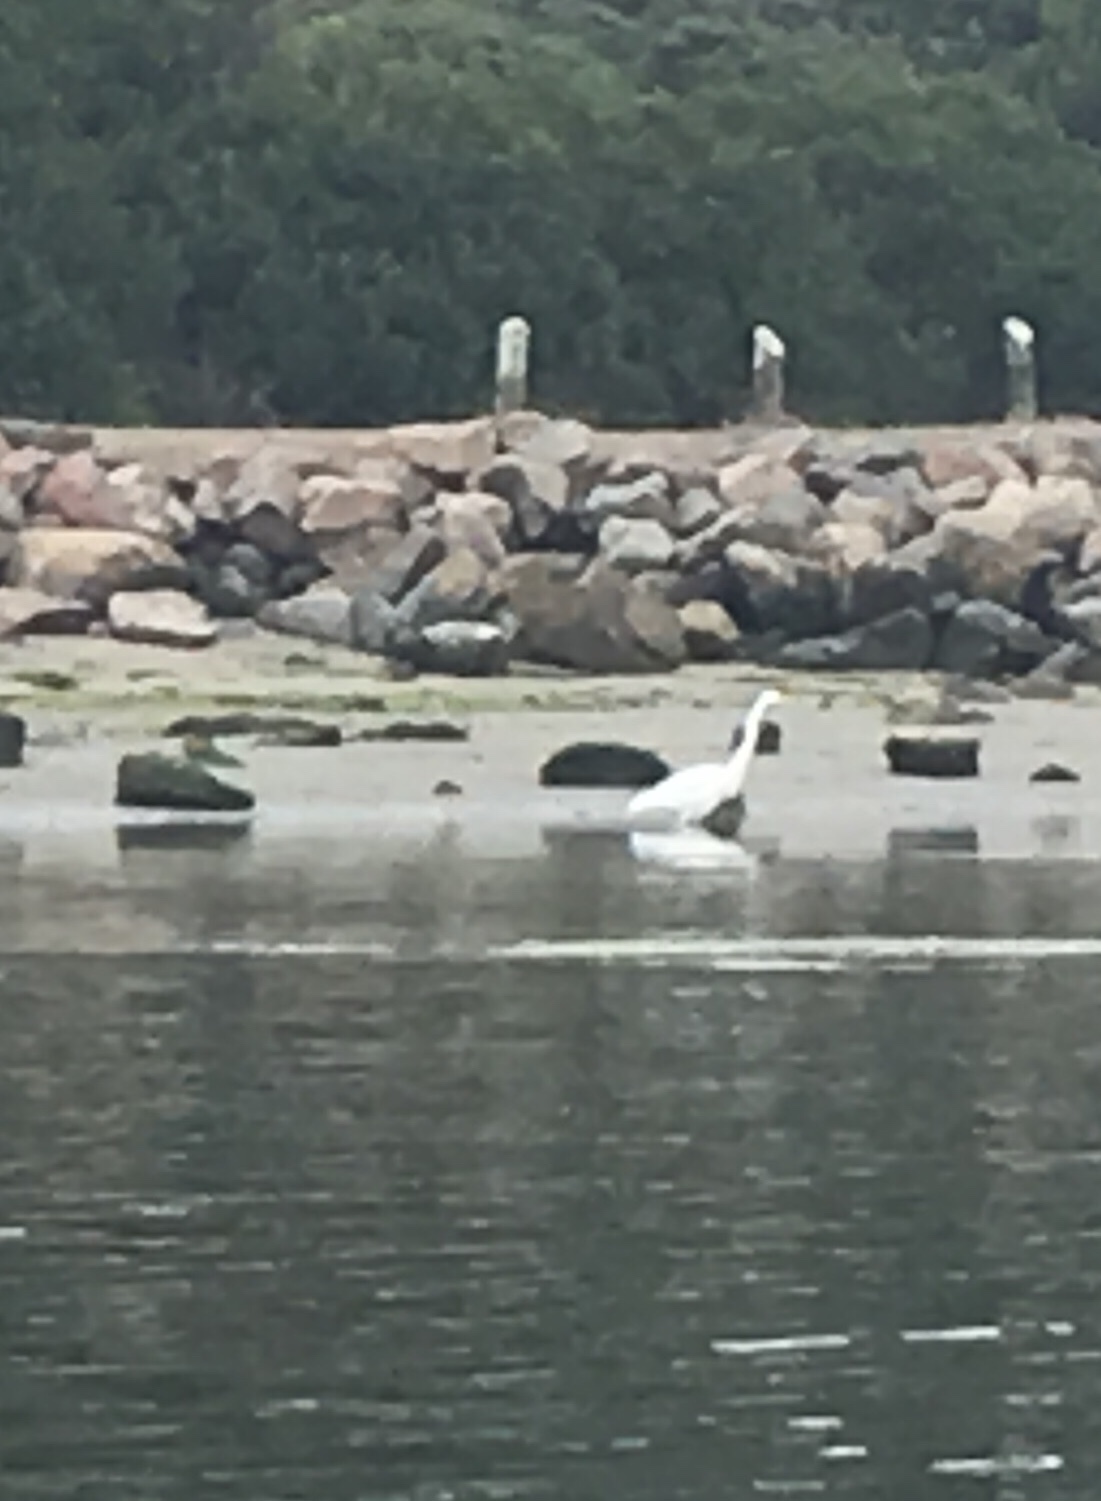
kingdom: Animalia
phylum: Chordata
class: Aves
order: Pelecaniformes
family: Ardeidae
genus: Ardea
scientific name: Ardea alba
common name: Great egret
